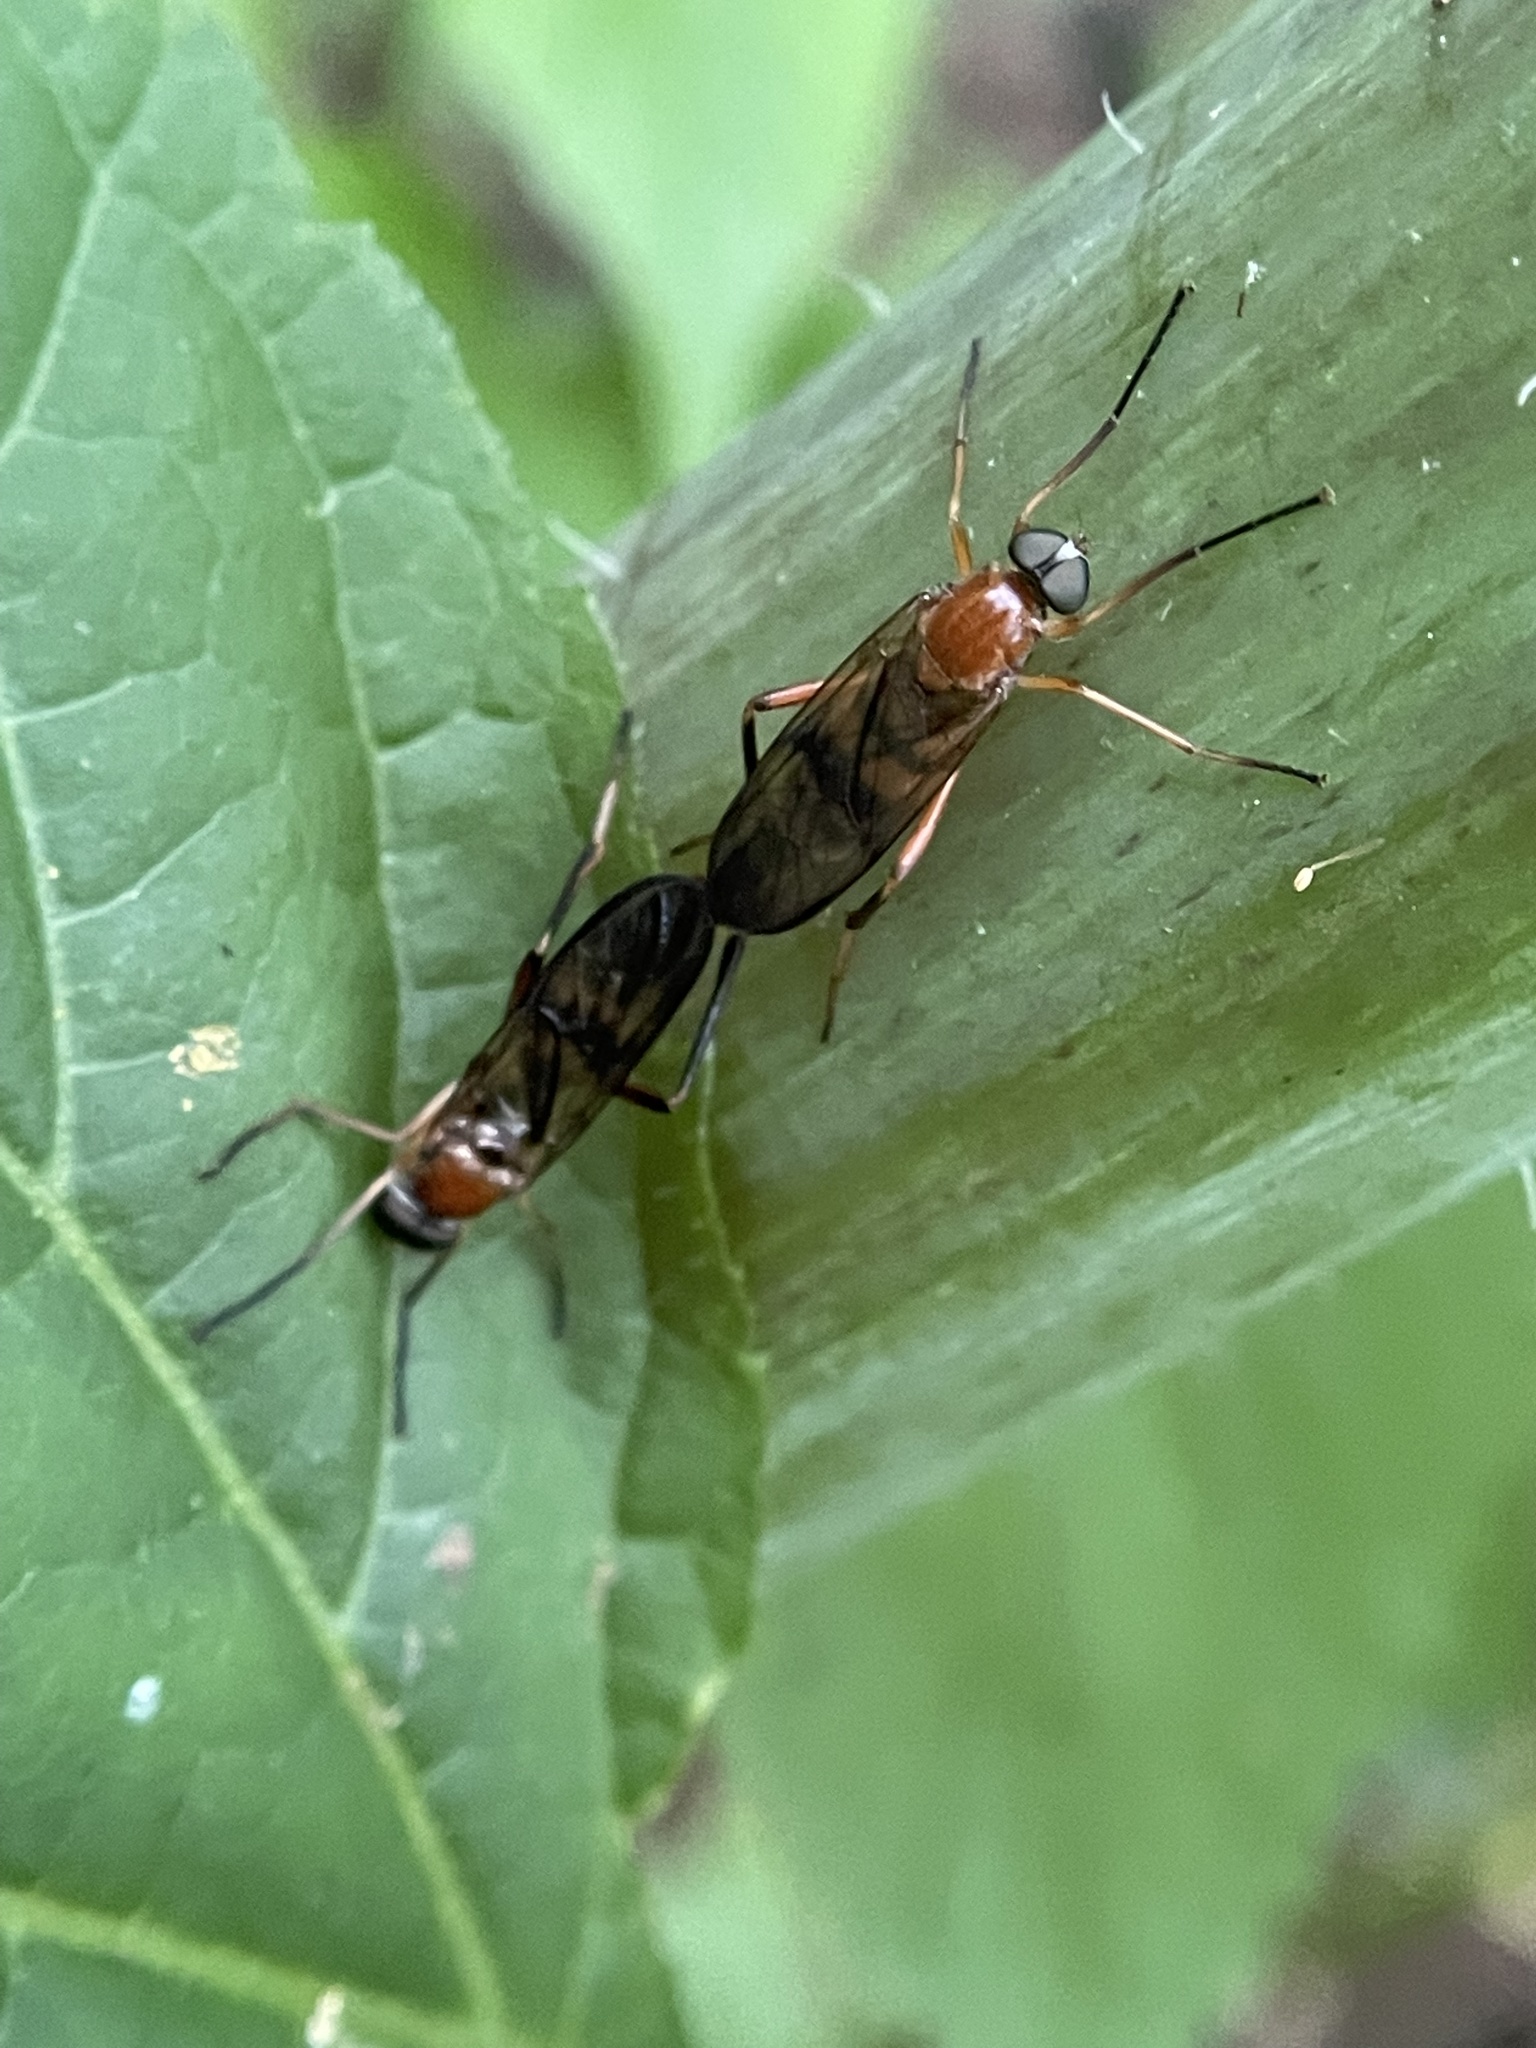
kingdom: Animalia
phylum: Arthropoda
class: Insecta
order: Diptera
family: Xylophagidae
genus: Dialysis
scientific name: Dialysis fasciventris
